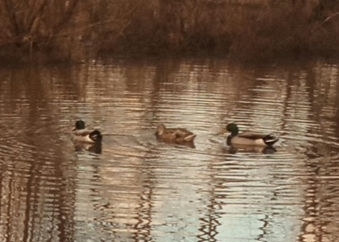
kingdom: Animalia
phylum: Chordata
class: Aves
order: Anseriformes
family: Anatidae
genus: Anas
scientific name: Anas platyrhynchos
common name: Mallard
